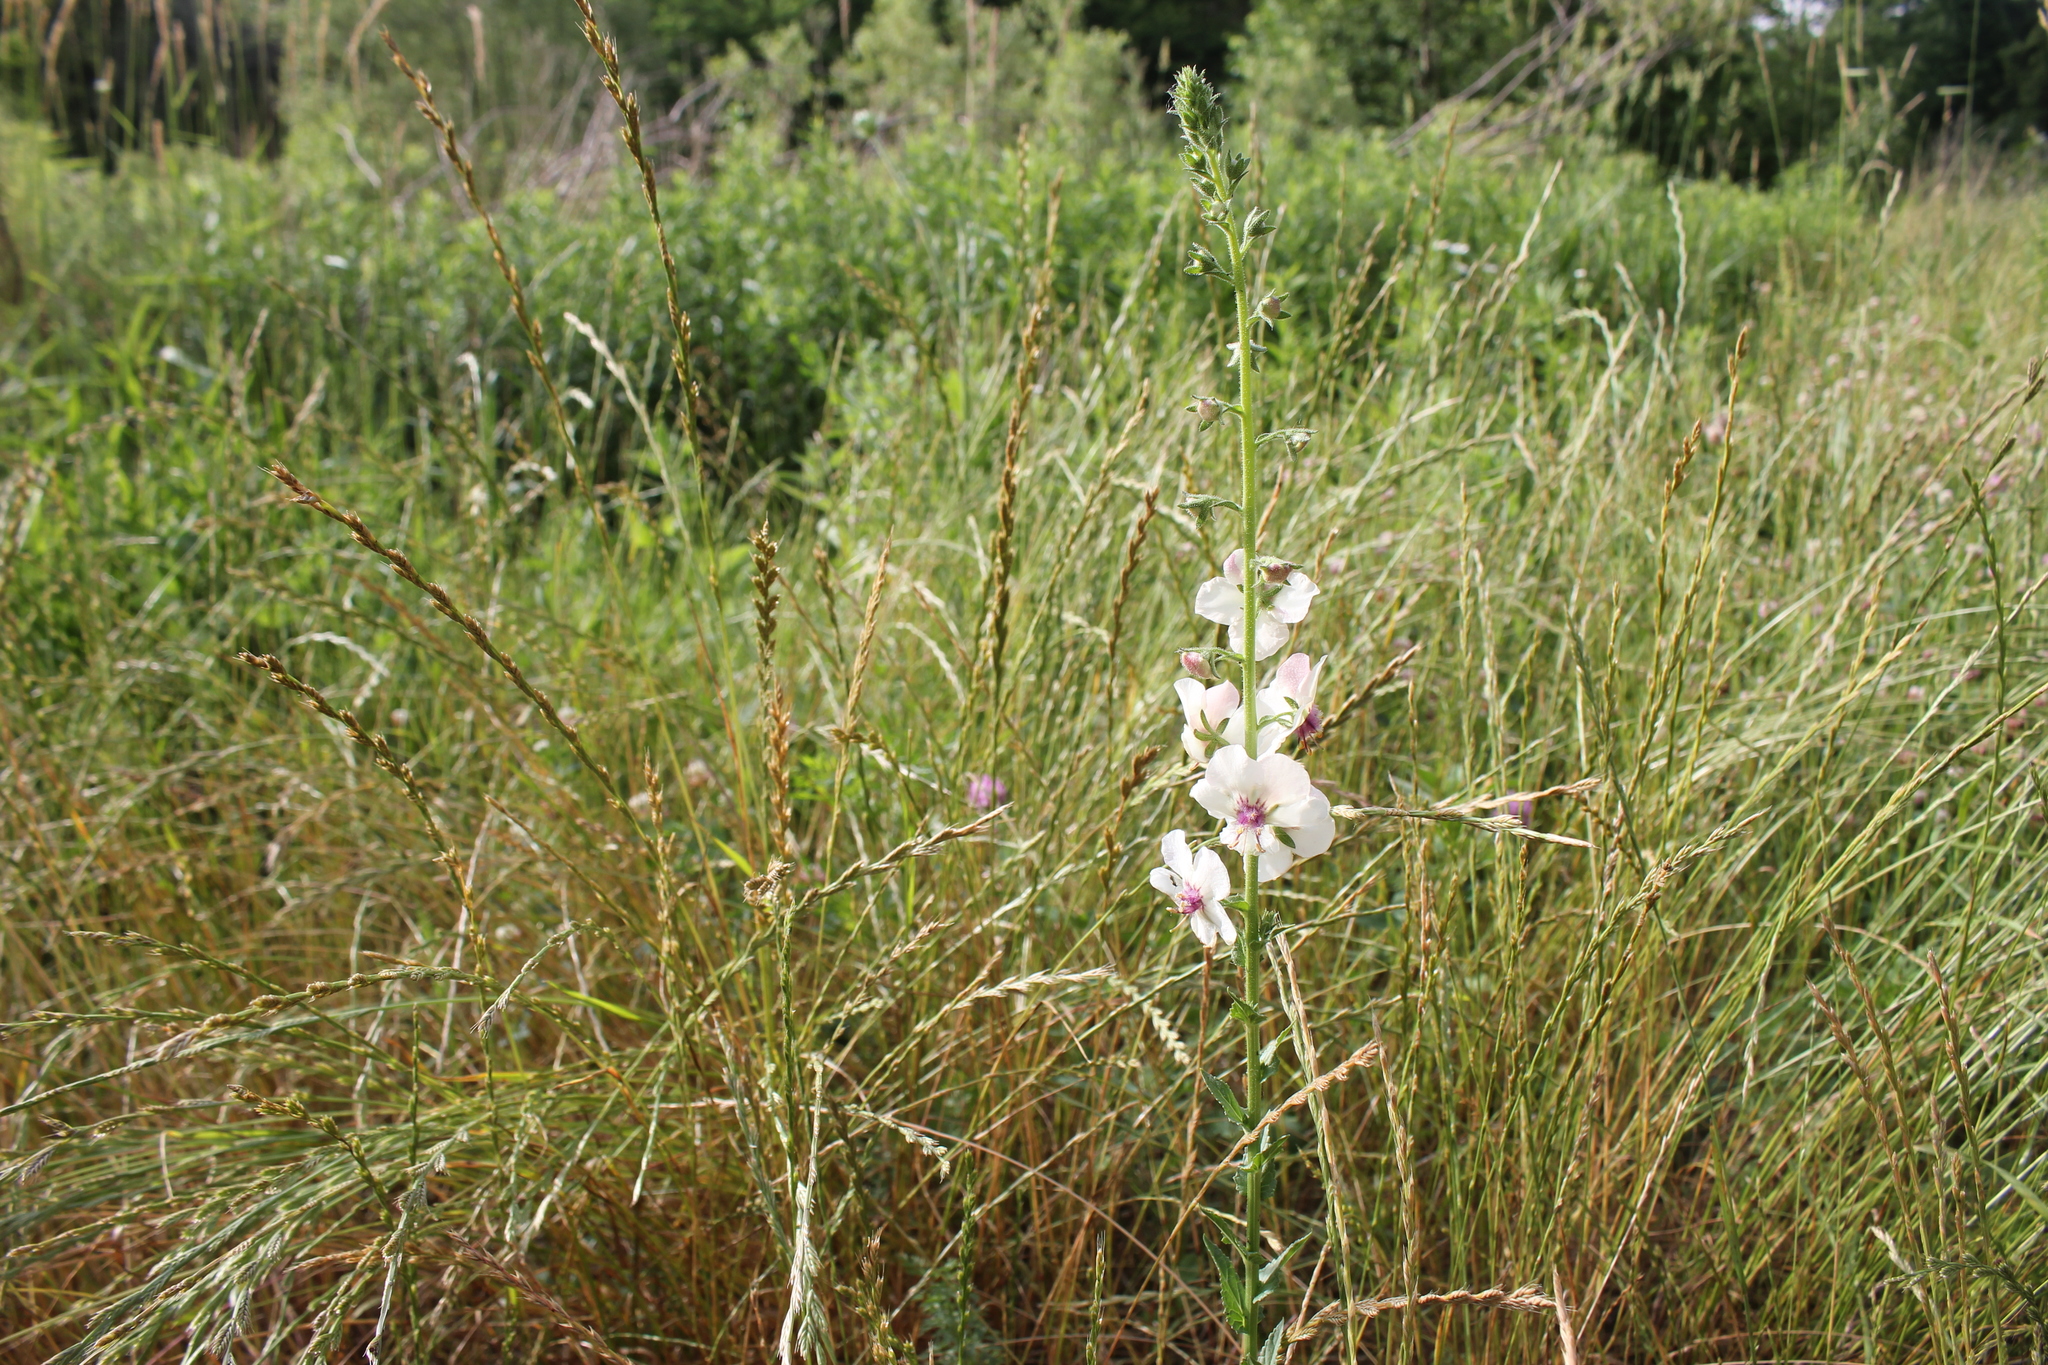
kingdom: Plantae
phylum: Tracheophyta
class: Magnoliopsida
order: Lamiales
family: Scrophulariaceae
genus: Verbascum
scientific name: Verbascum blattaria
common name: Moth mullein
